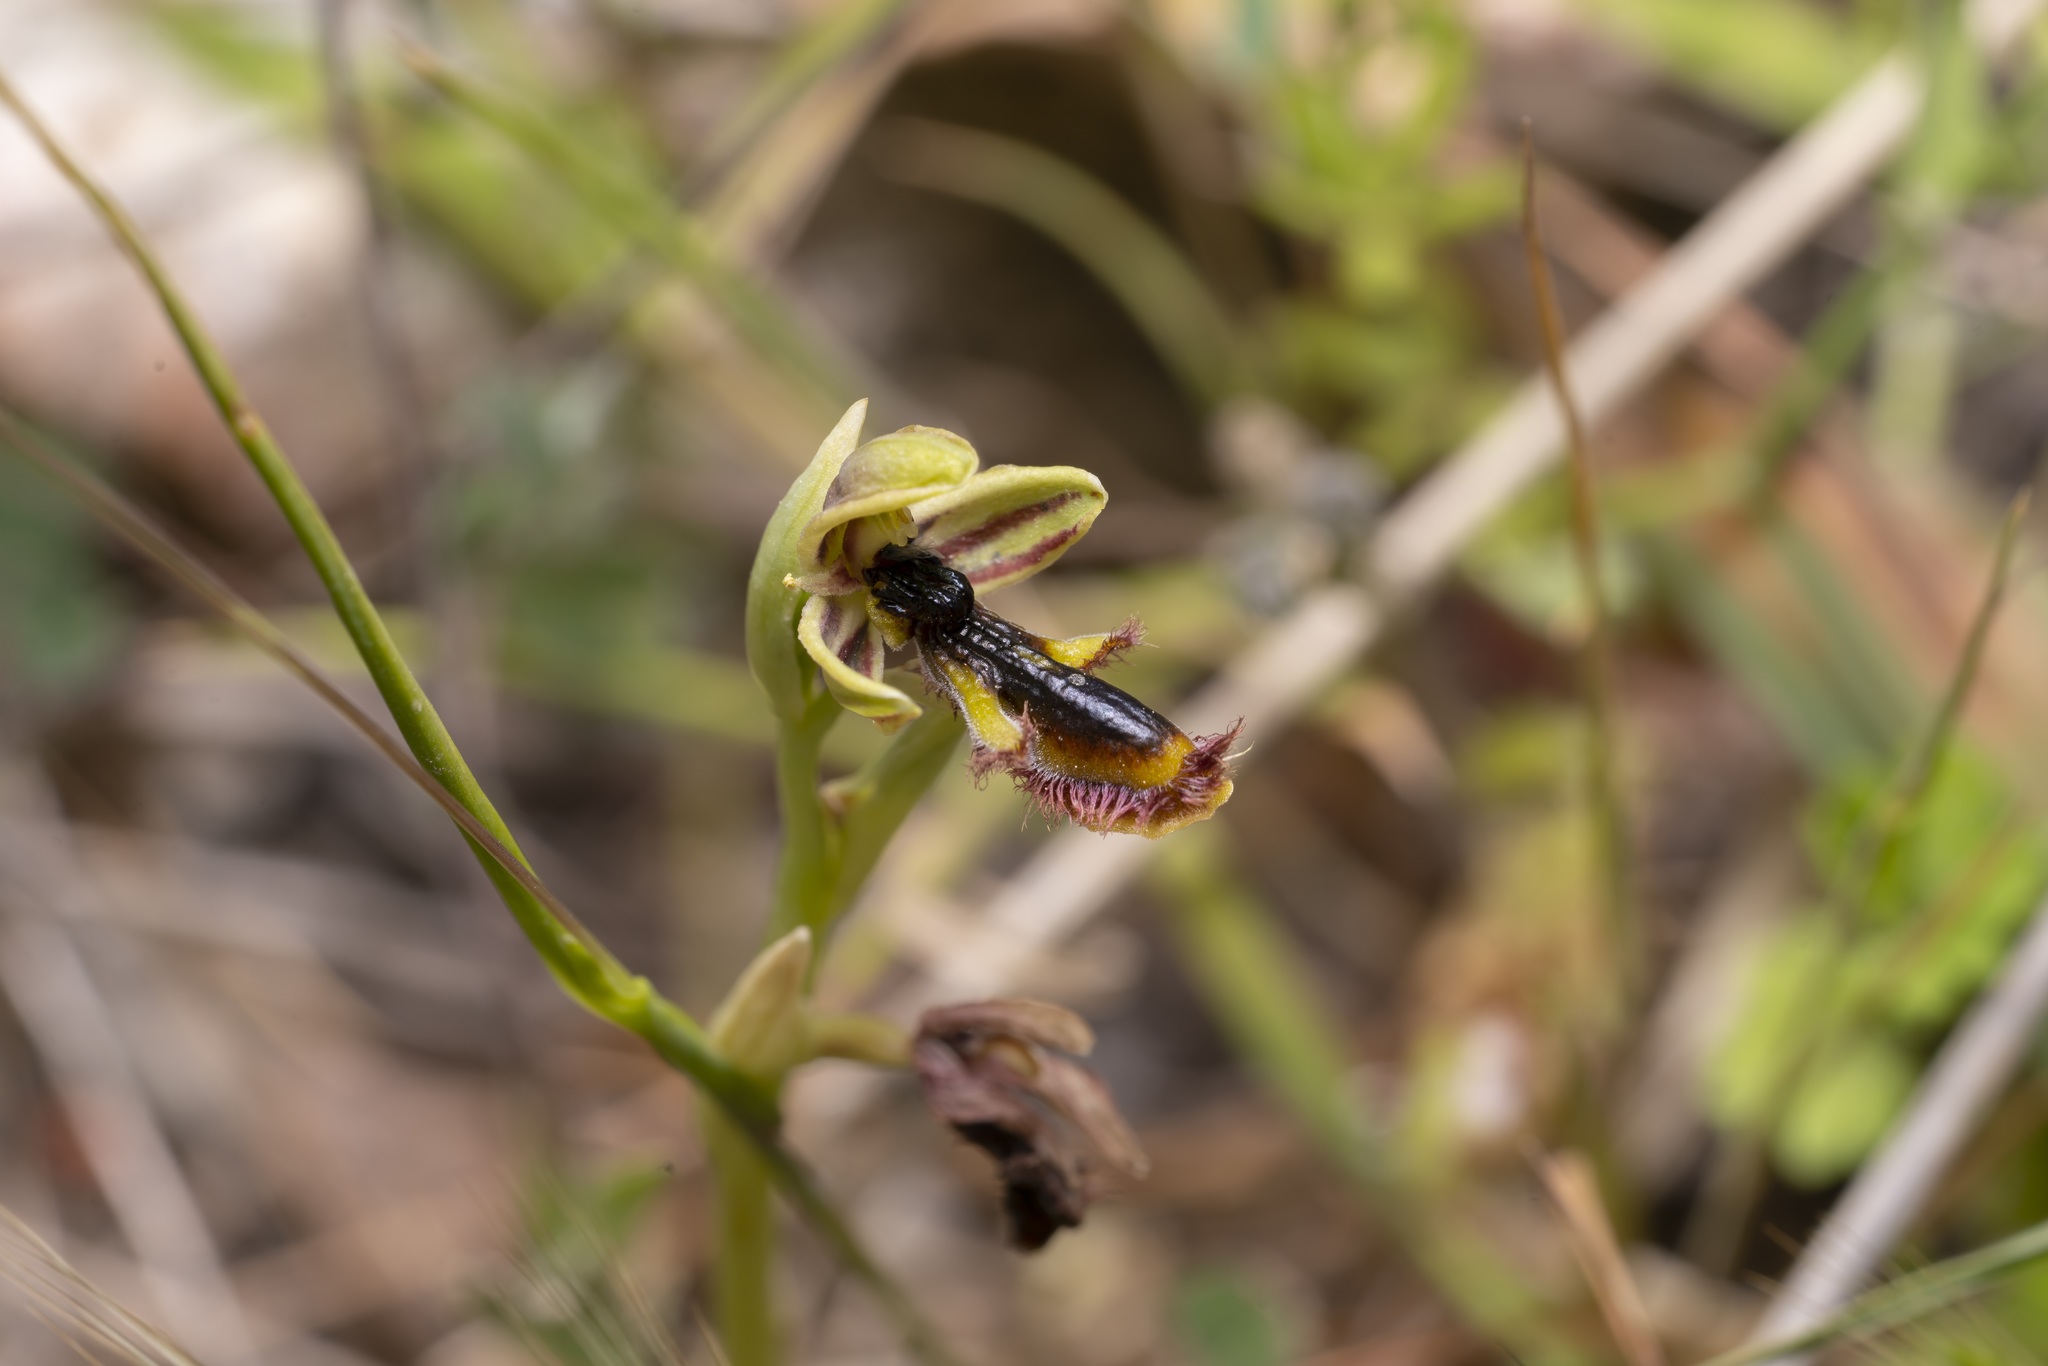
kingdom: Plantae
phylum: Tracheophyta
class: Liliopsida
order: Asparagales
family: Orchidaceae
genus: Ophrys
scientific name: Ophrys speculum
